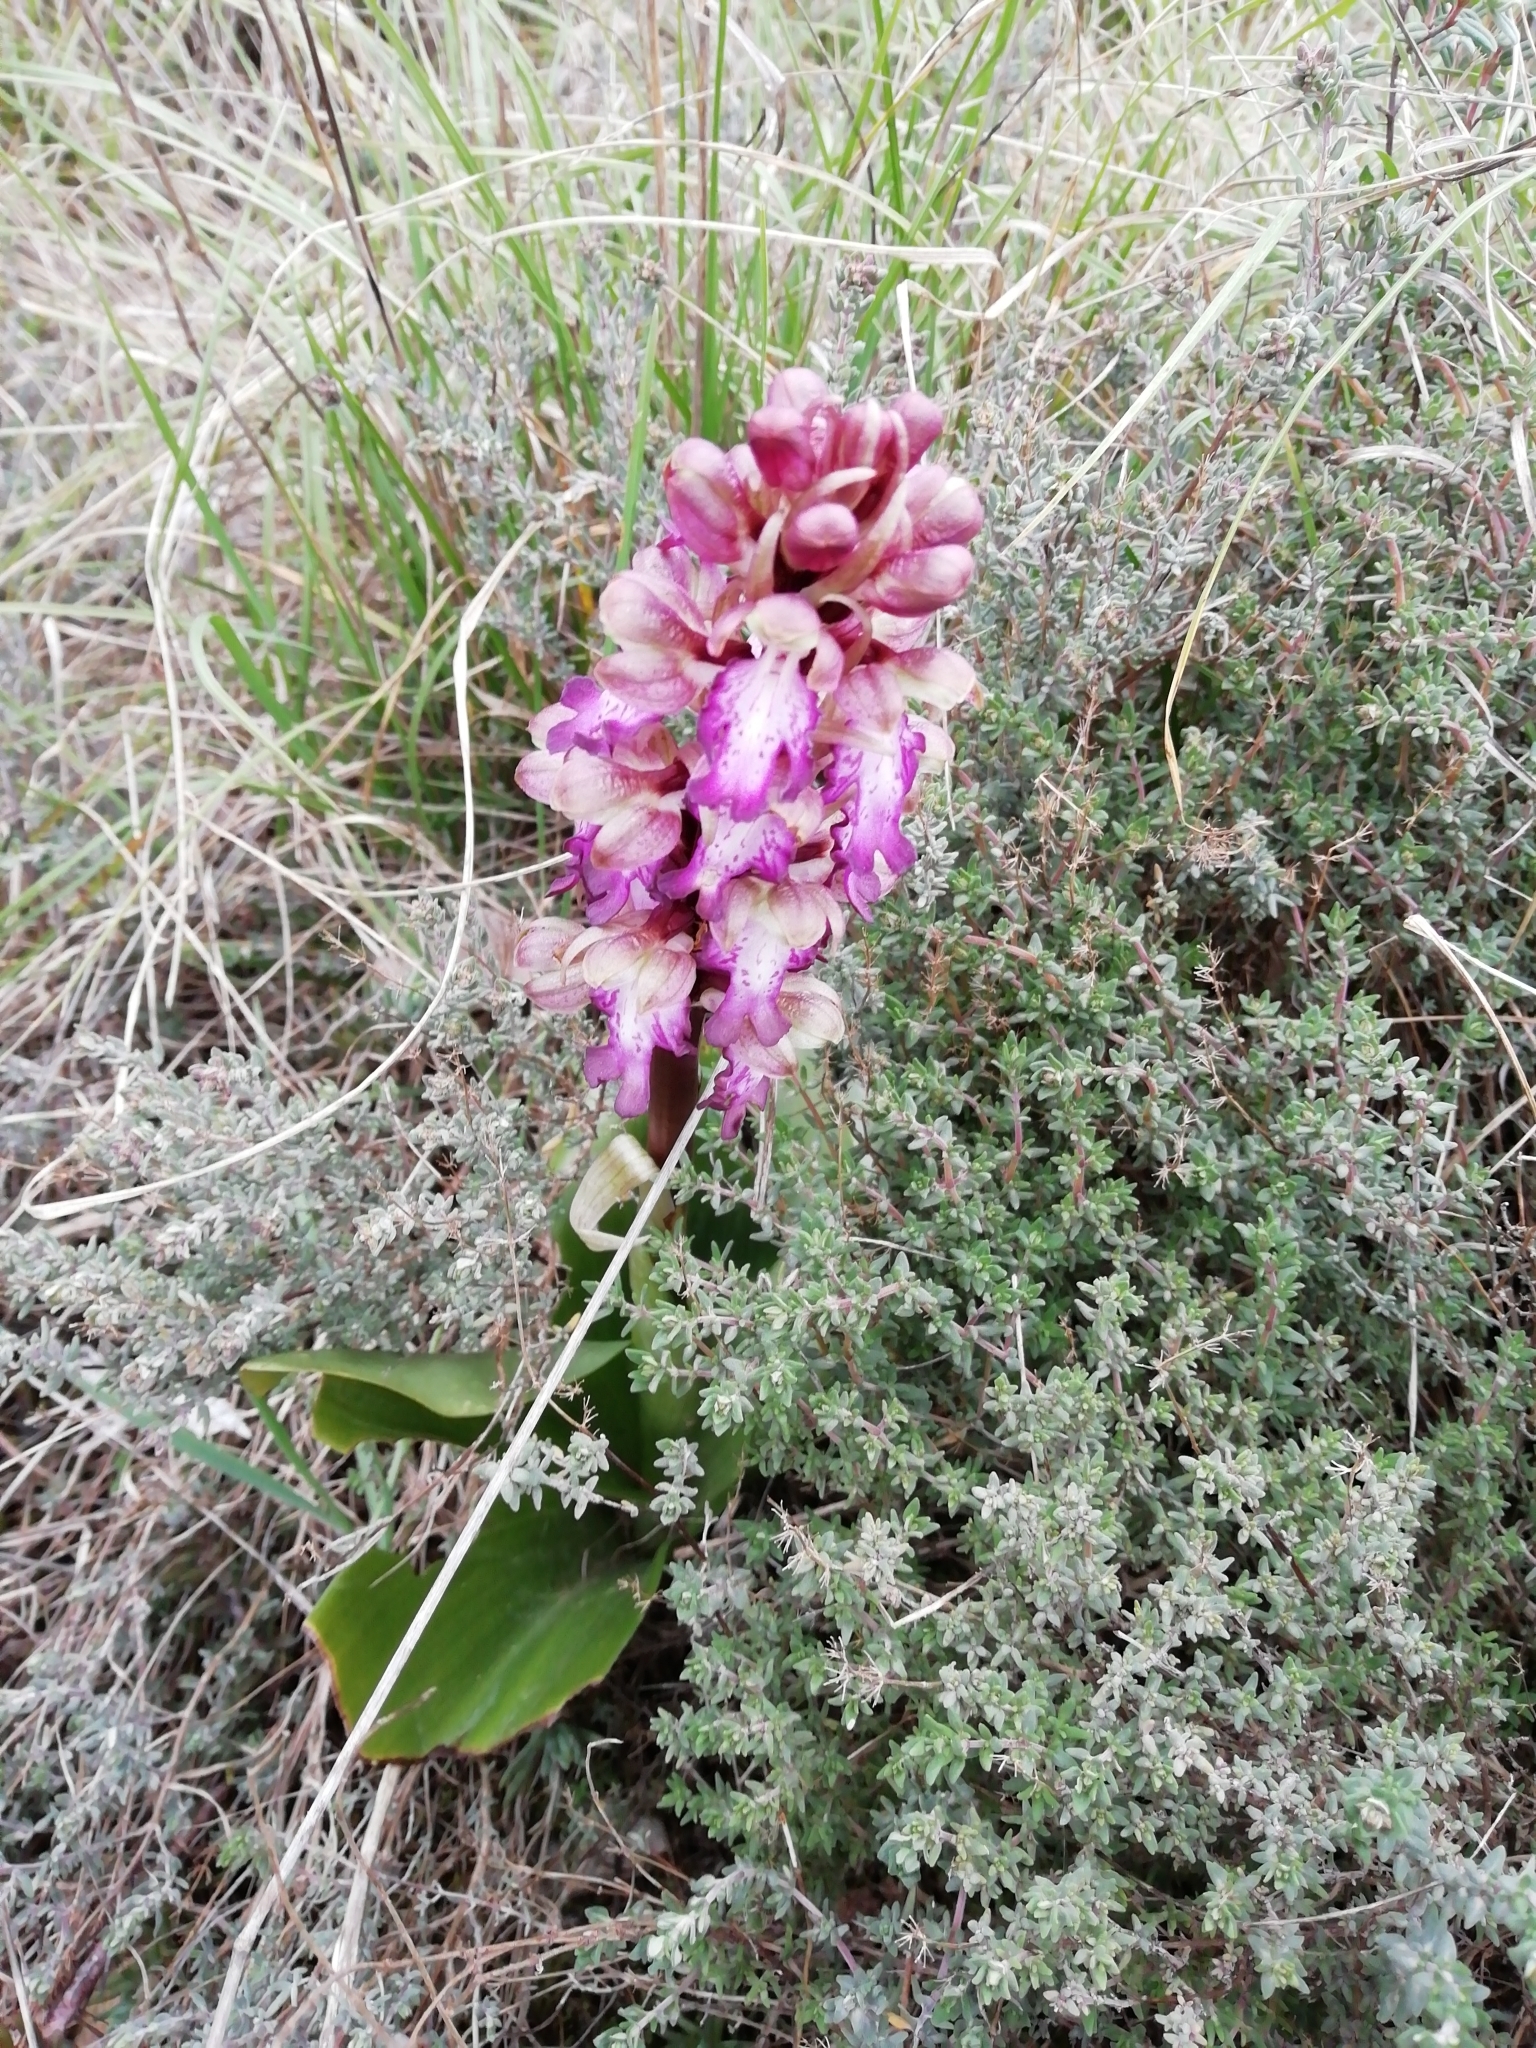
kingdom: Plantae
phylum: Tracheophyta
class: Liliopsida
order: Asparagales
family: Orchidaceae
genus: Himantoglossum
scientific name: Himantoglossum robertianum
